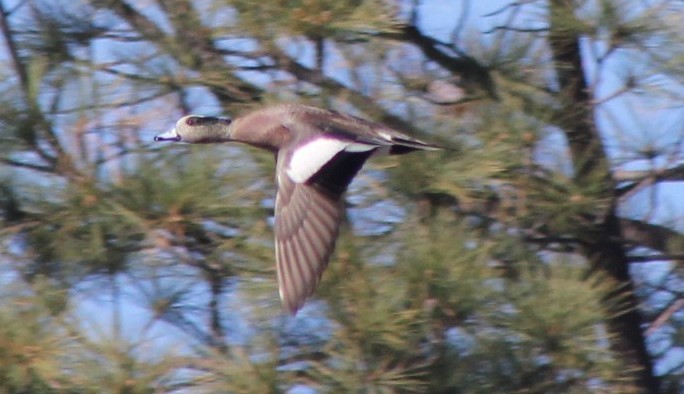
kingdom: Animalia
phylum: Chordata
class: Aves
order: Anseriformes
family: Anatidae
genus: Mareca
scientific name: Mareca americana
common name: American wigeon
